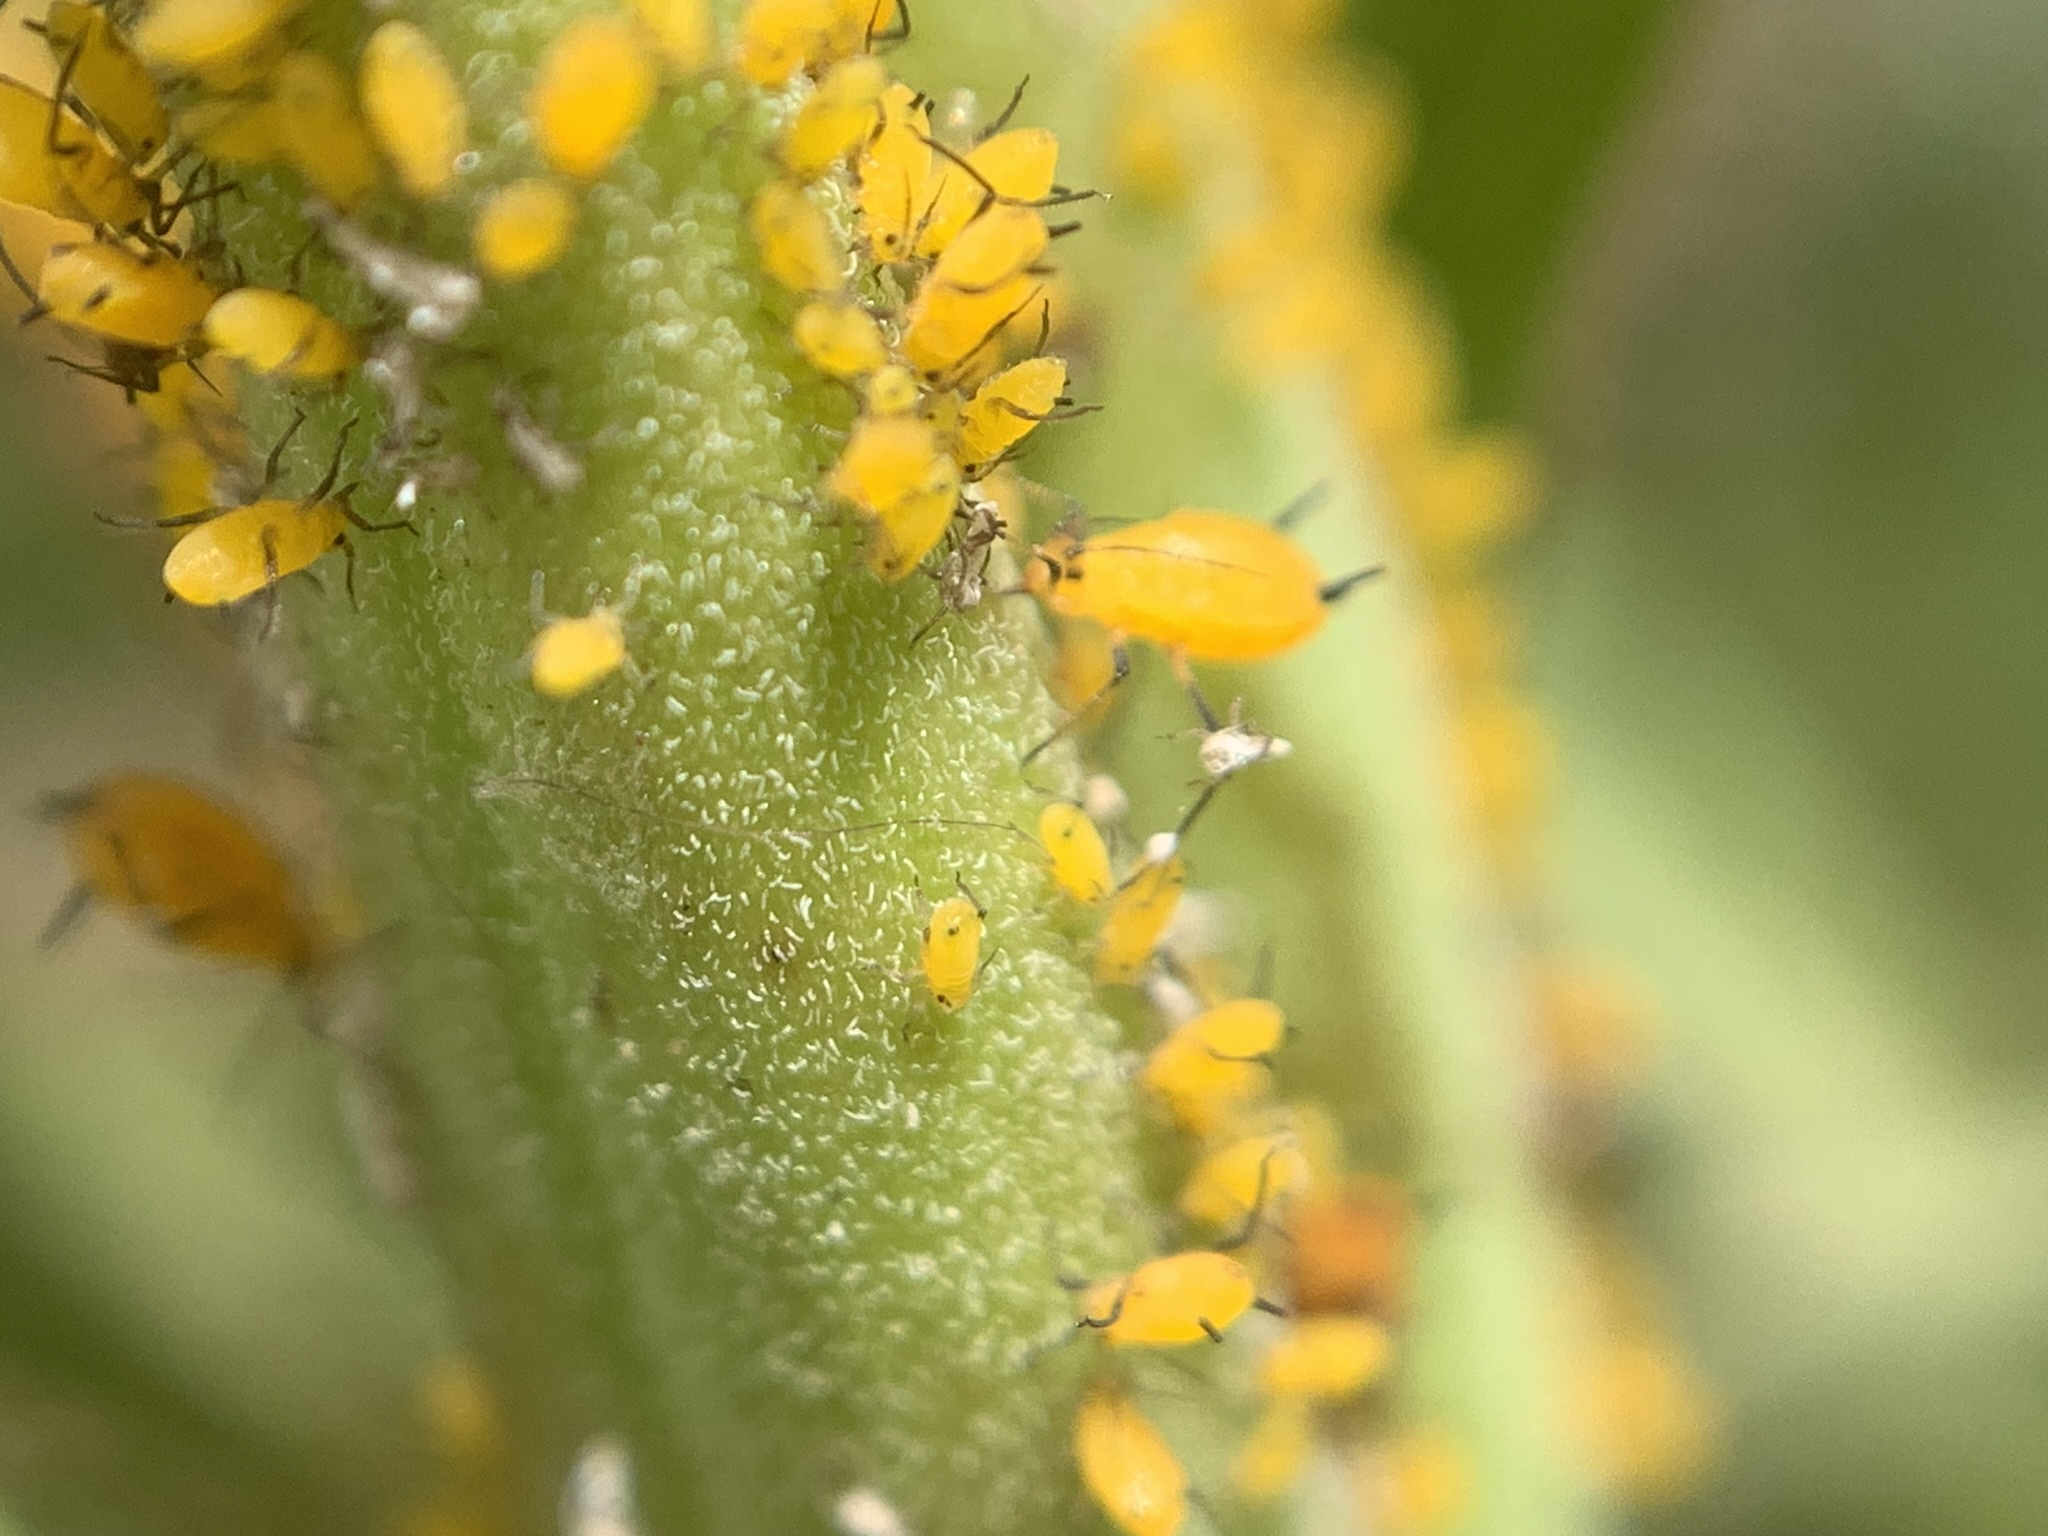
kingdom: Animalia
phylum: Arthropoda
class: Insecta
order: Hemiptera
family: Aphididae
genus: Aphis
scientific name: Aphis nerii
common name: Oleander aphid
